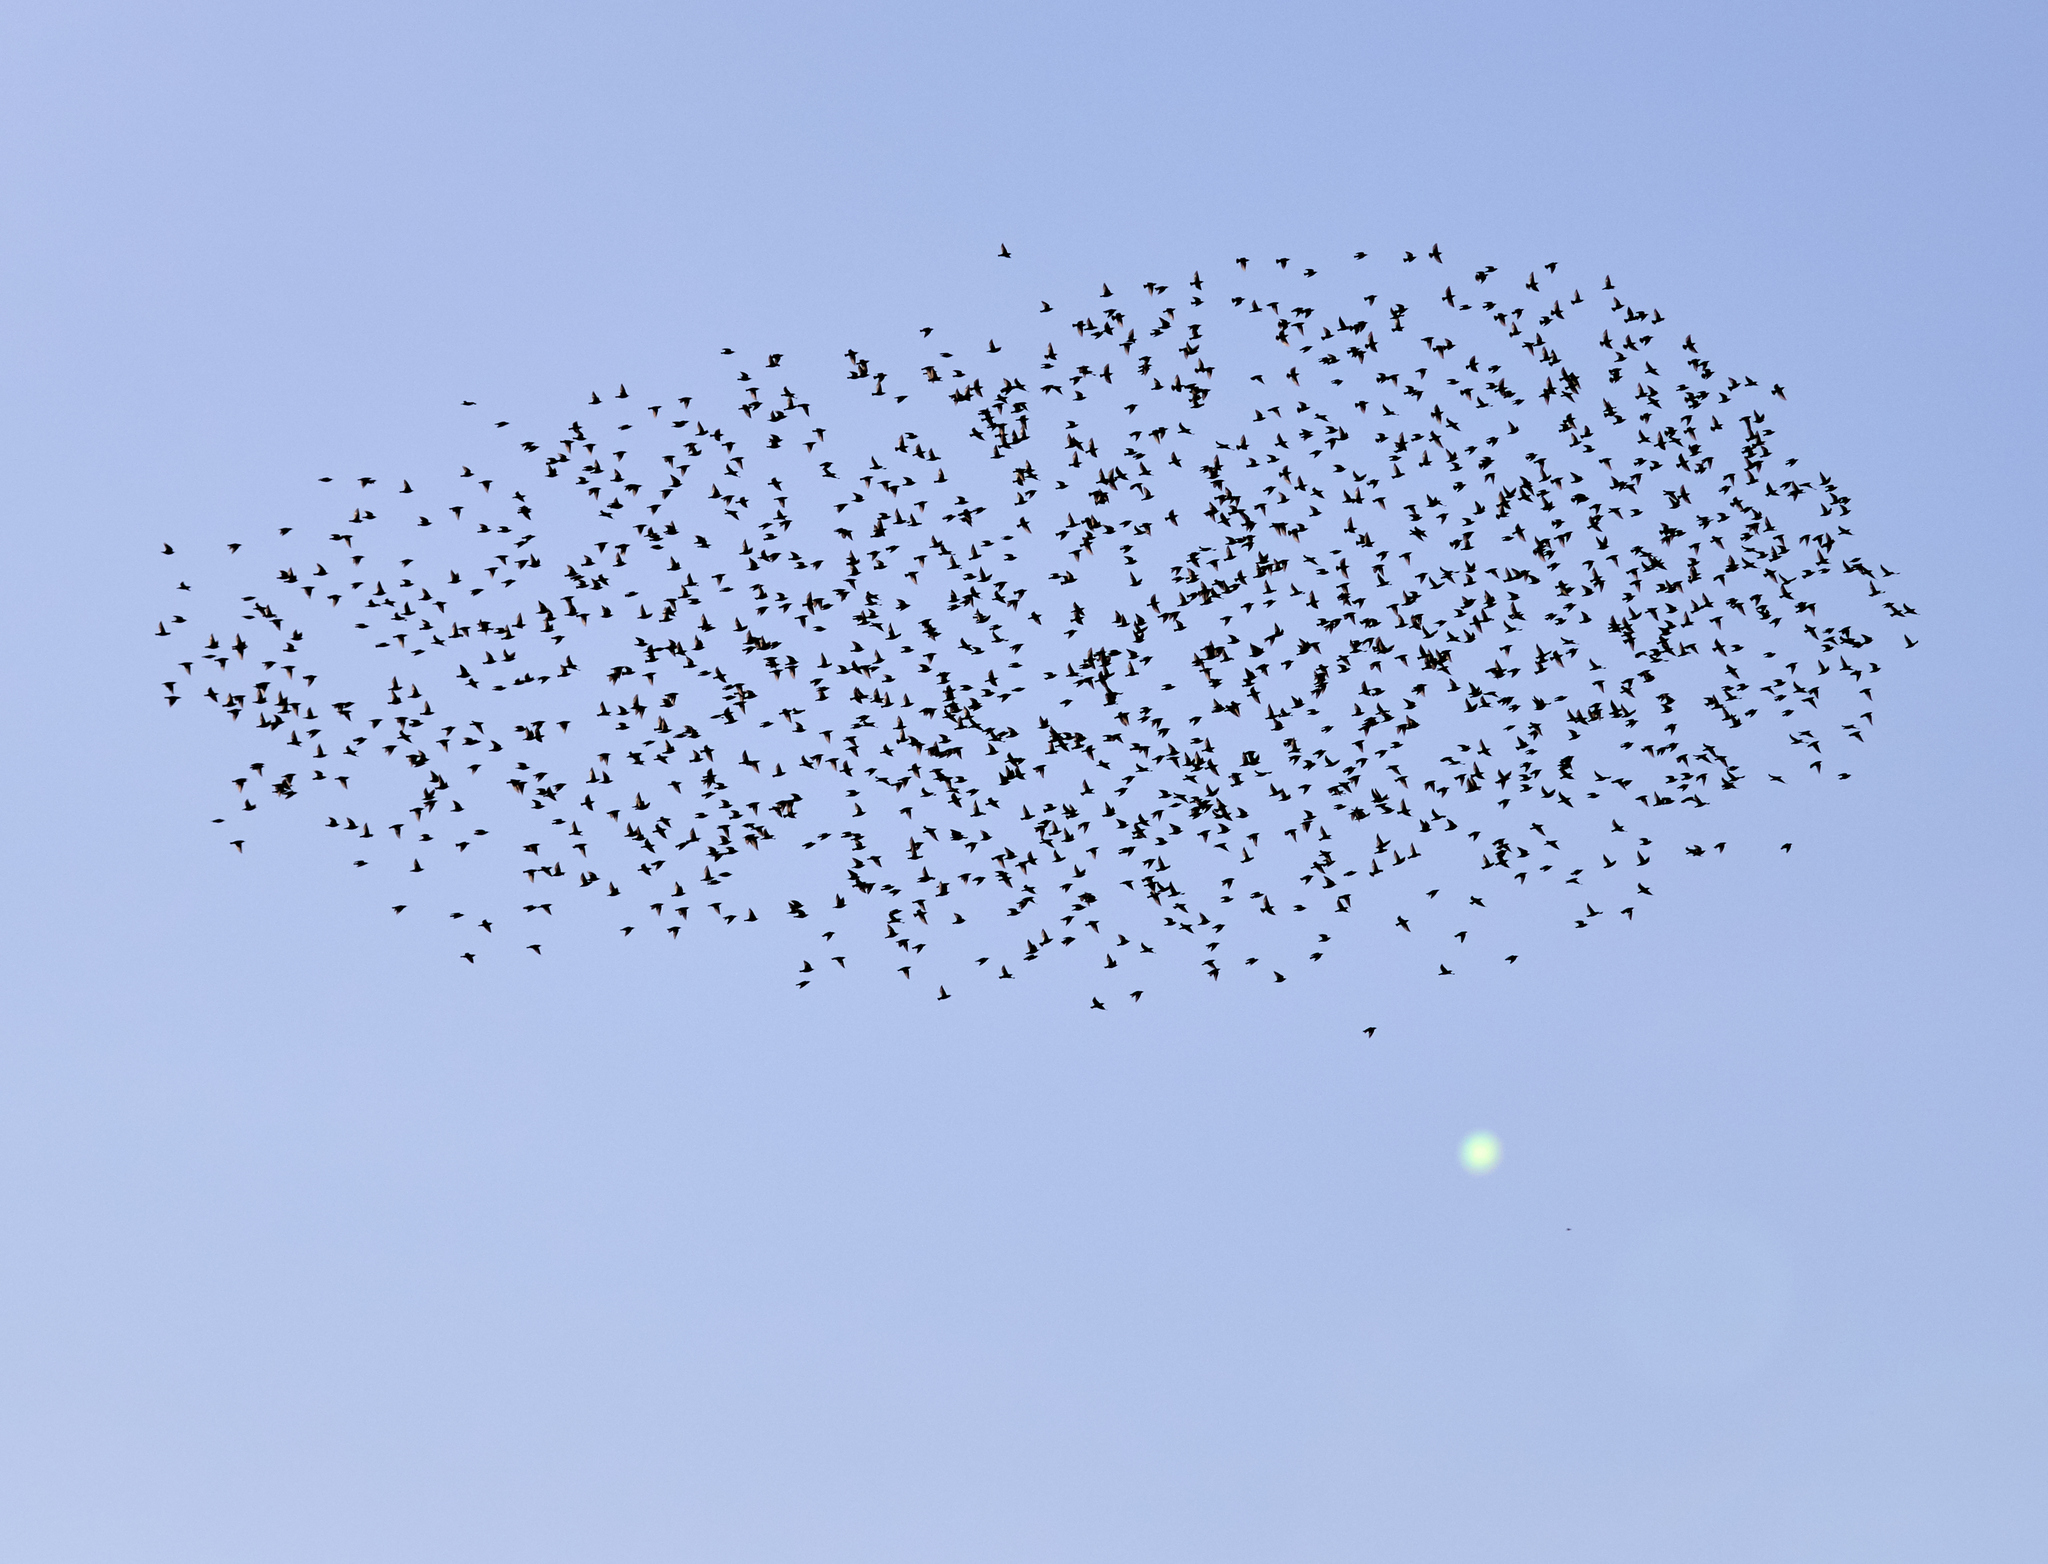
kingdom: Animalia
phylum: Chordata
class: Aves
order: Passeriformes
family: Sturnidae
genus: Sturnus
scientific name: Sturnus vulgaris
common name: Common starling
